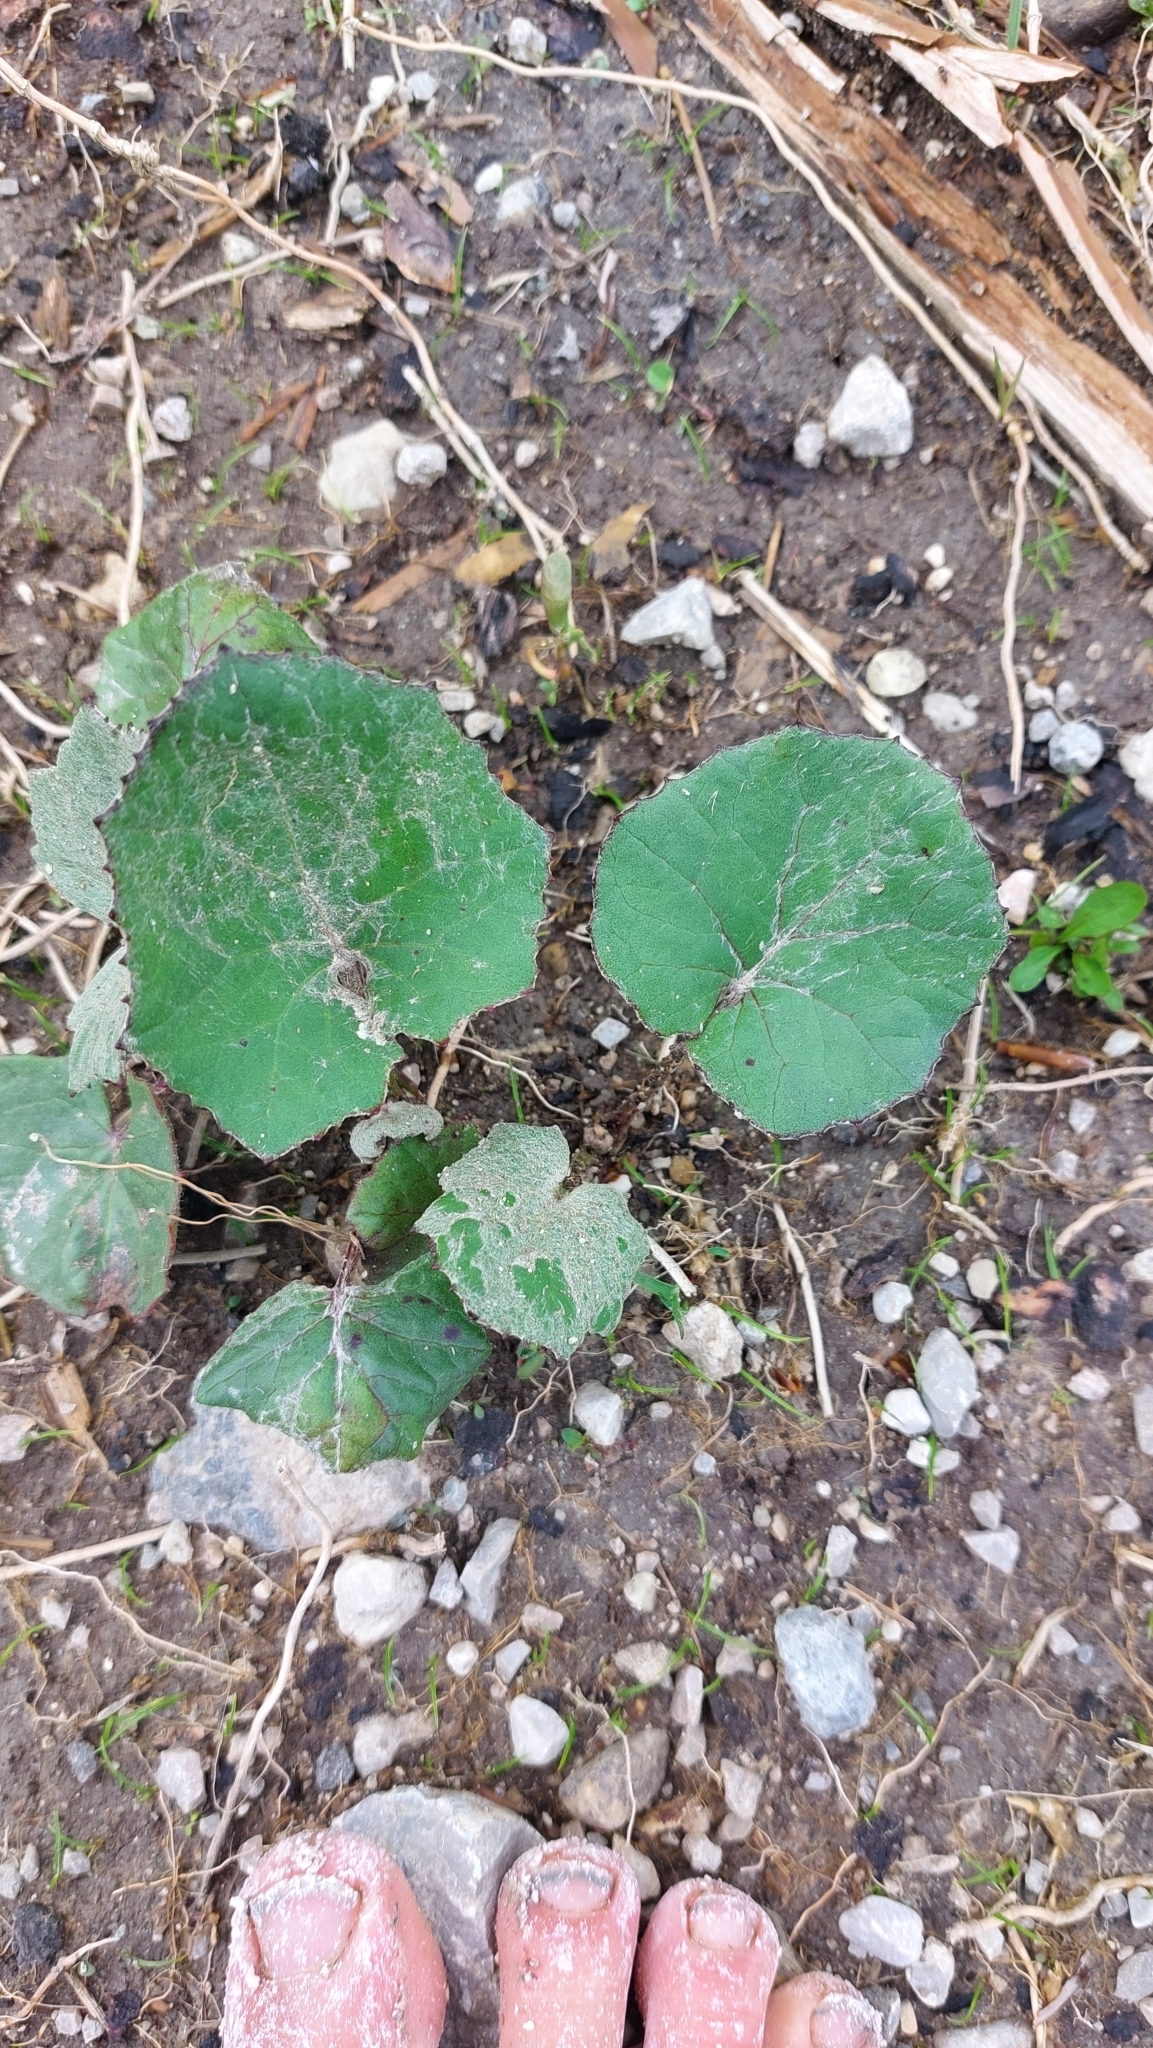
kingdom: Plantae
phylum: Tracheophyta
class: Magnoliopsida
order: Asterales
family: Asteraceae
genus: Tussilago
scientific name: Tussilago farfara
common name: Coltsfoot
